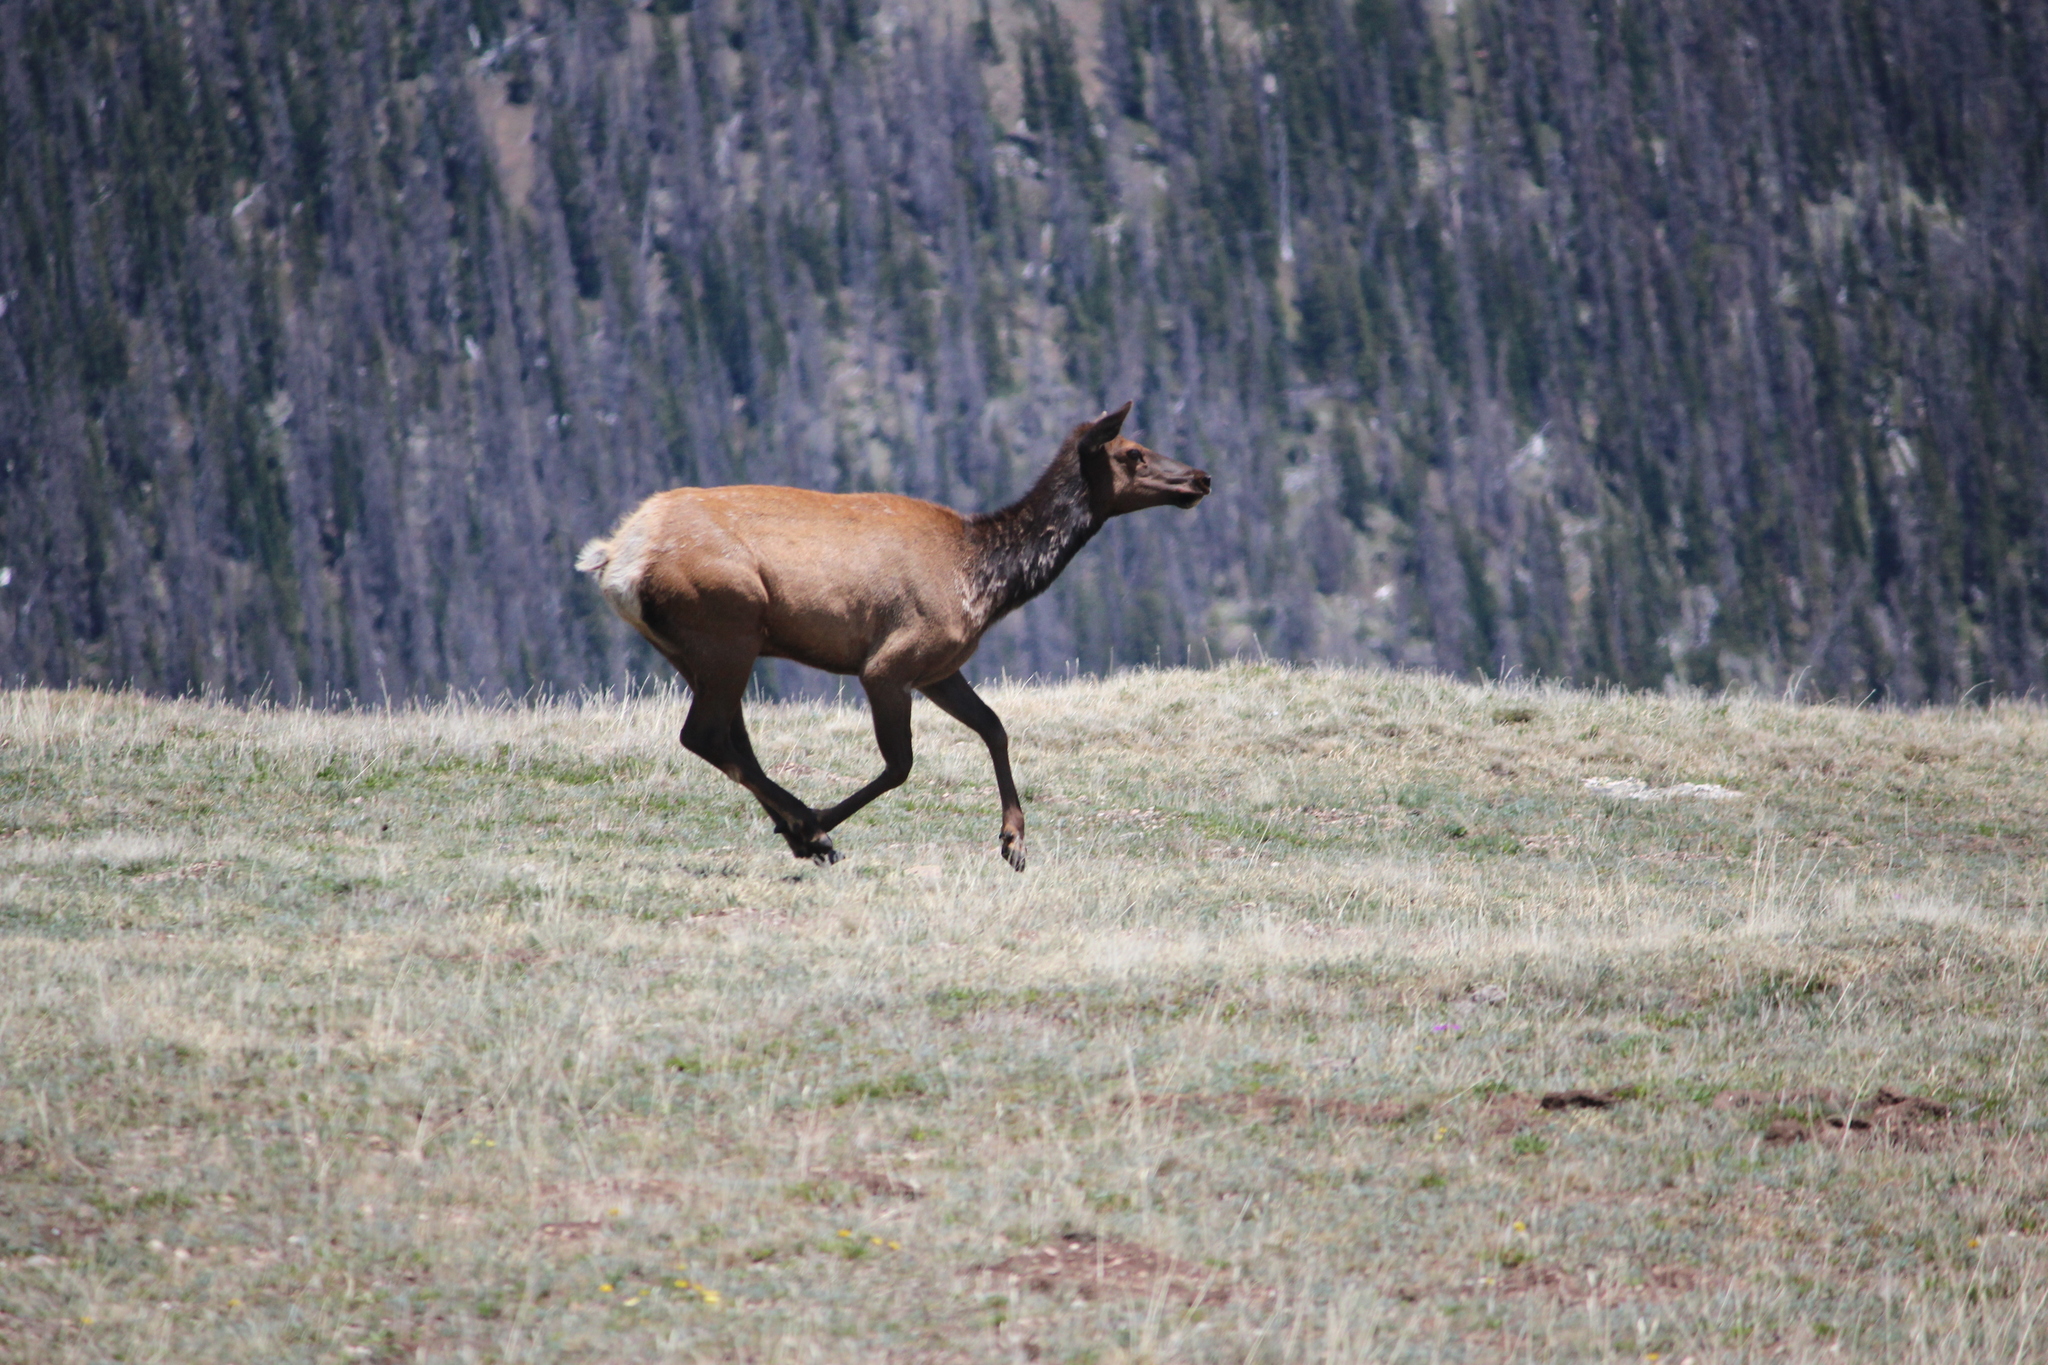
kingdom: Animalia
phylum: Chordata
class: Mammalia
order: Artiodactyla
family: Cervidae
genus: Cervus
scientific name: Cervus elaphus
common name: Red deer
